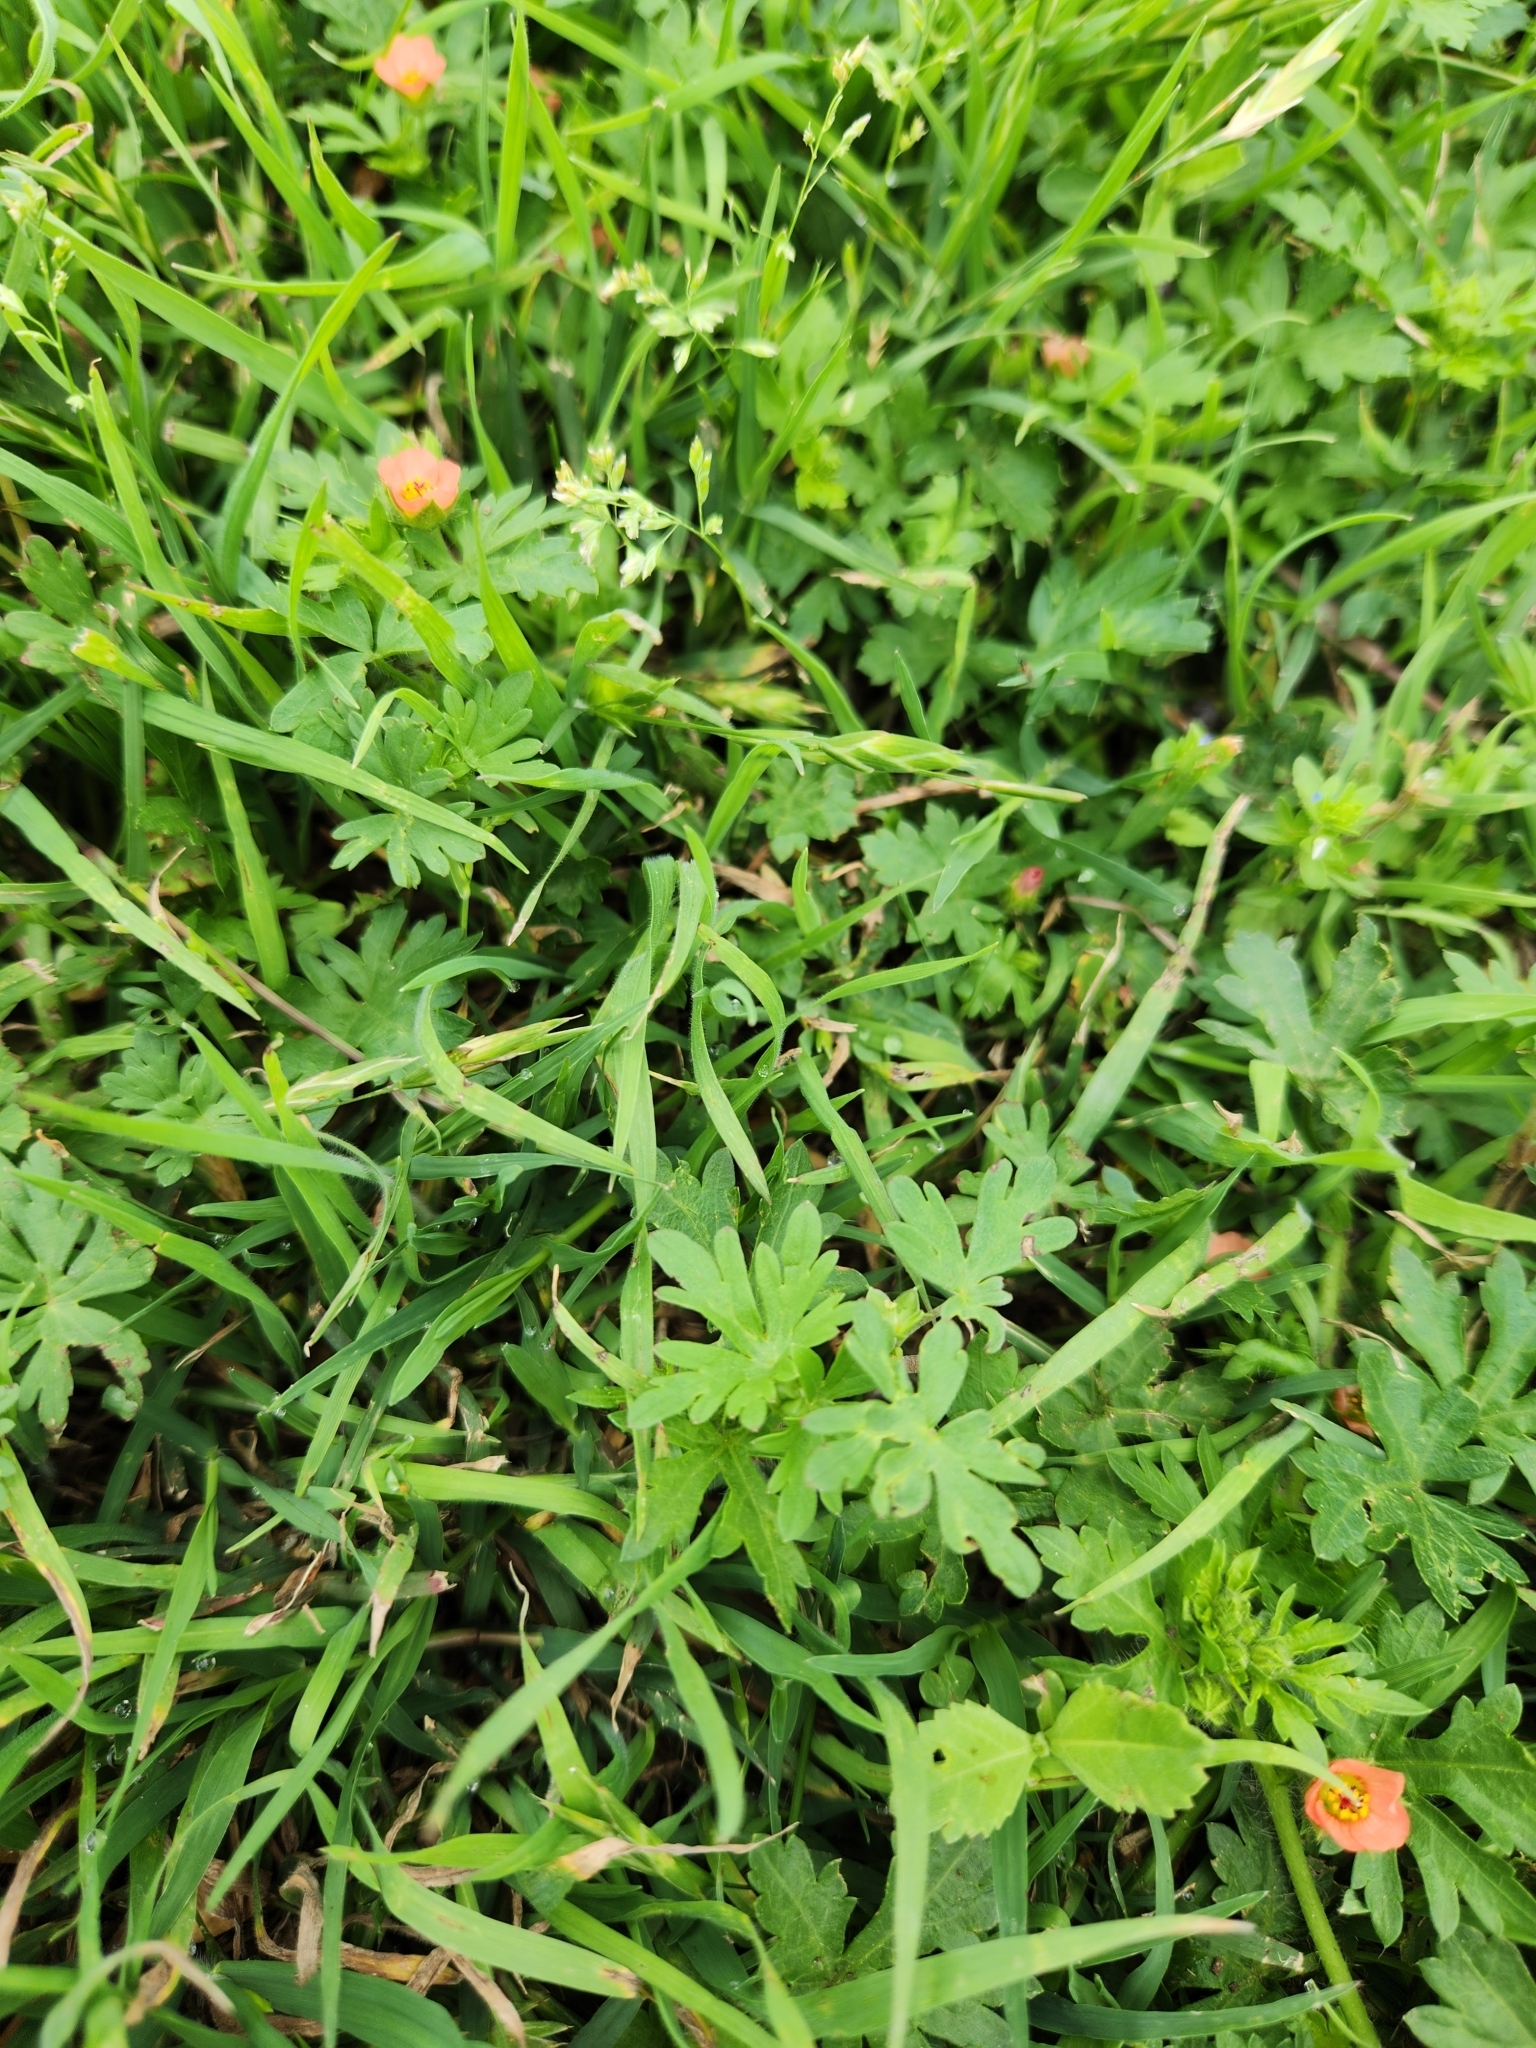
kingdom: Plantae
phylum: Tracheophyta
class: Magnoliopsida
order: Malvales
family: Malvaceae
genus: Modiola
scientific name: Modiola caroliniana
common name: Carolina bristlemallow
